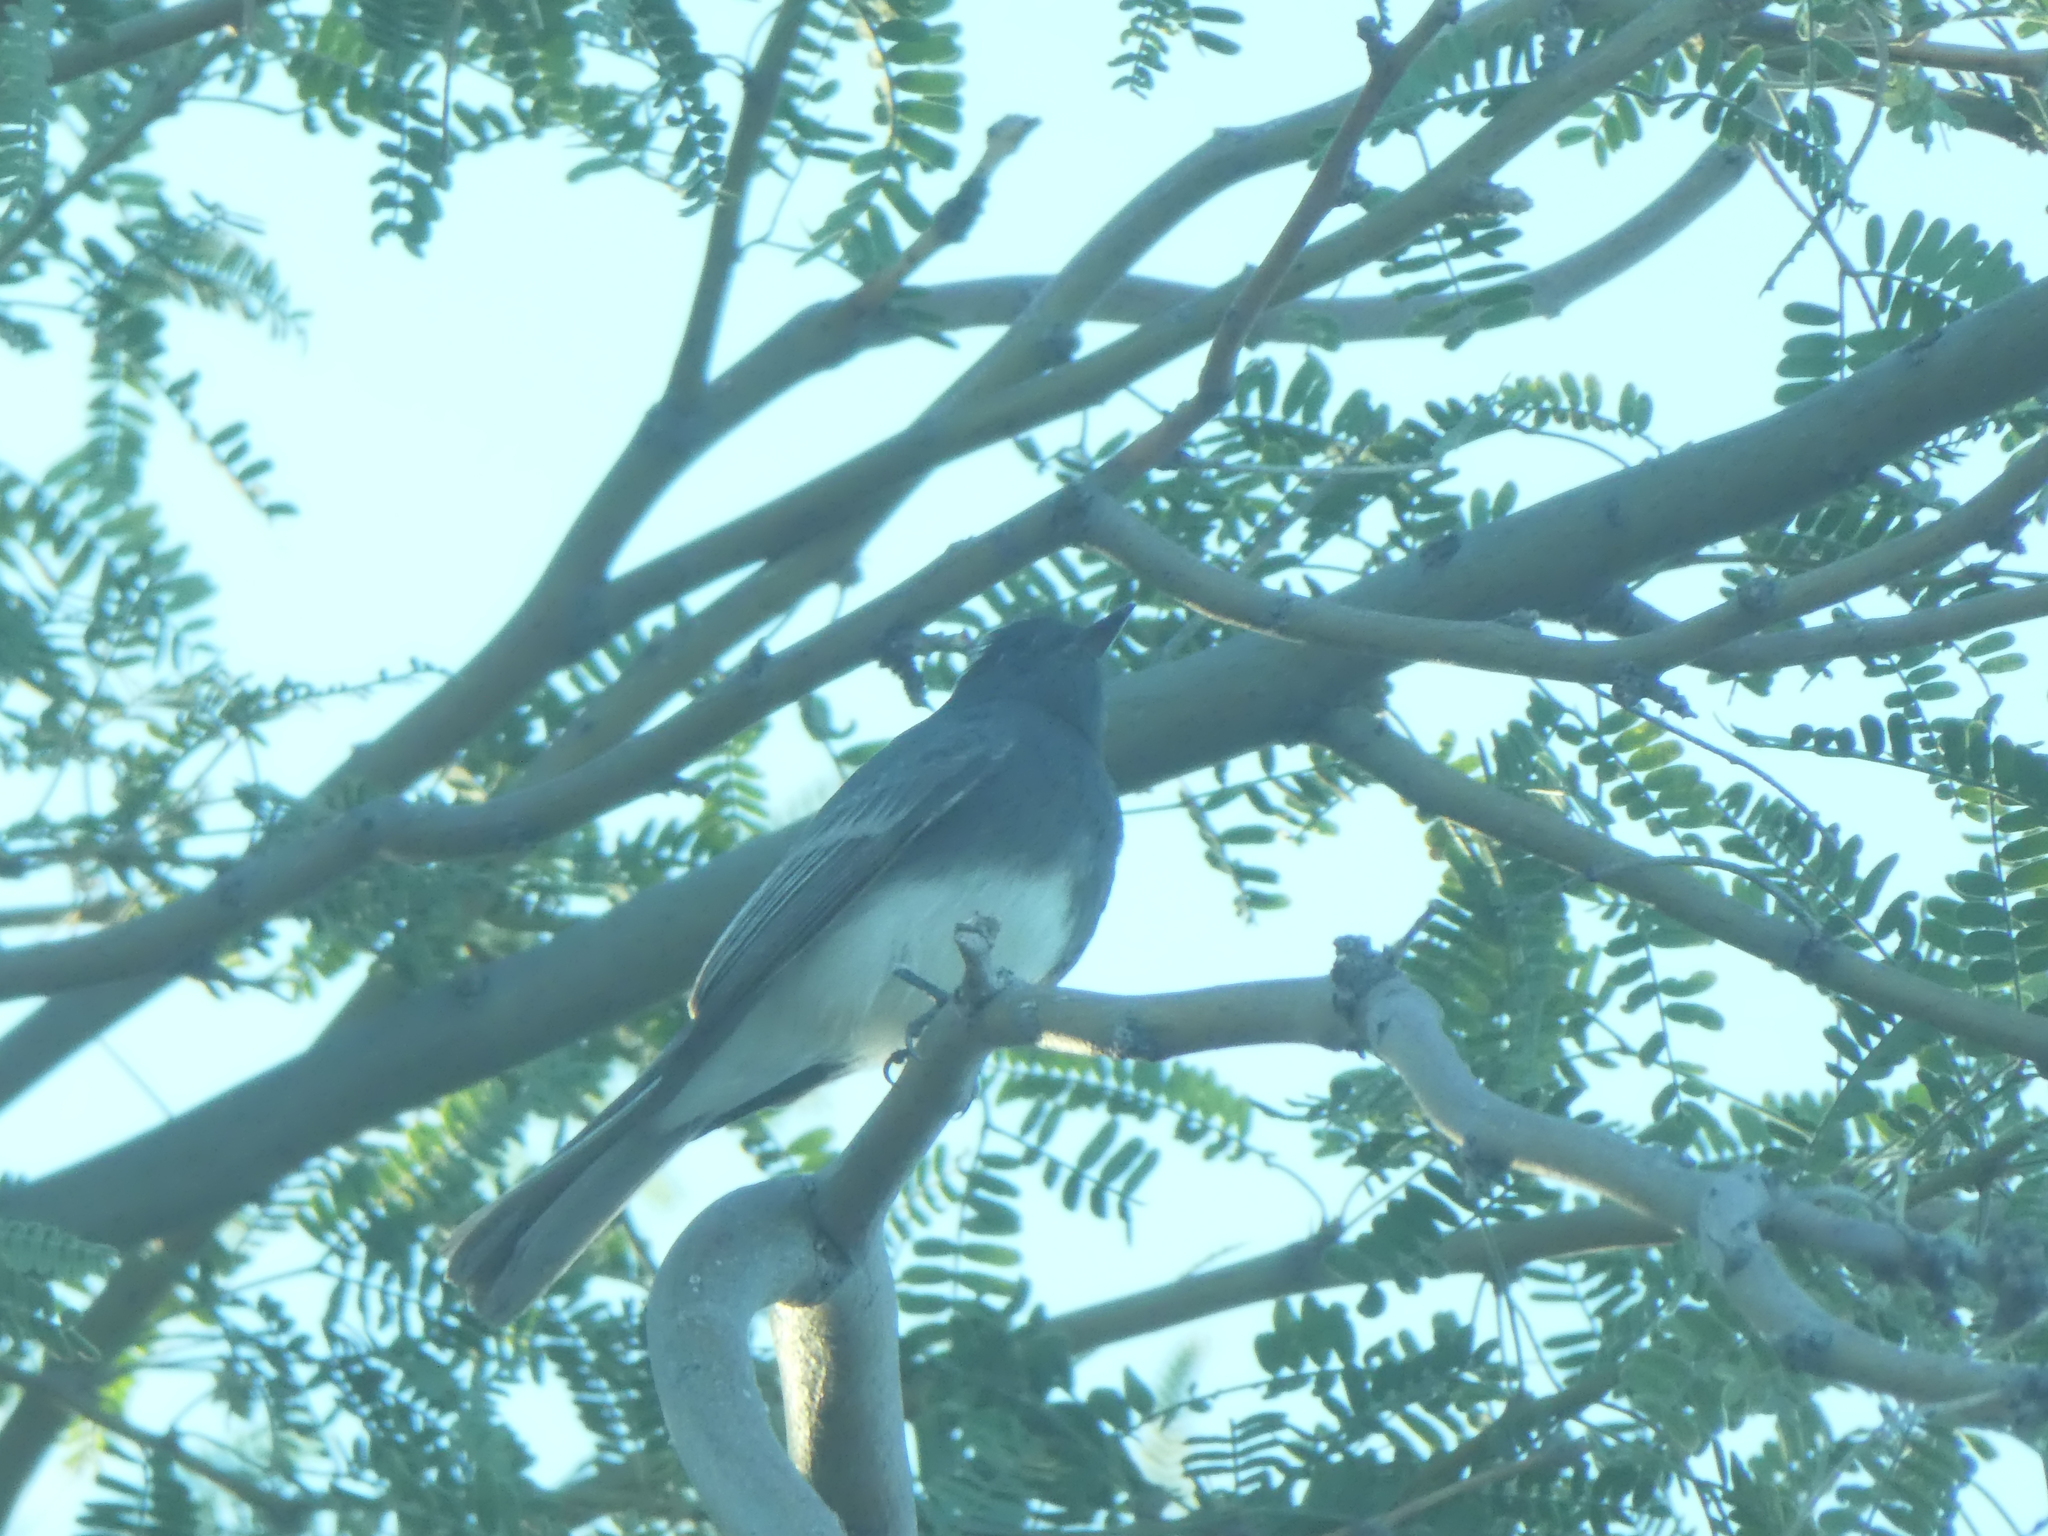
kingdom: Animalia
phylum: Chordata
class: Aves
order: Passeriformes
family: Tyrannidae
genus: Sayornis
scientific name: Sayornis nigricans
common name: Black phoebe
